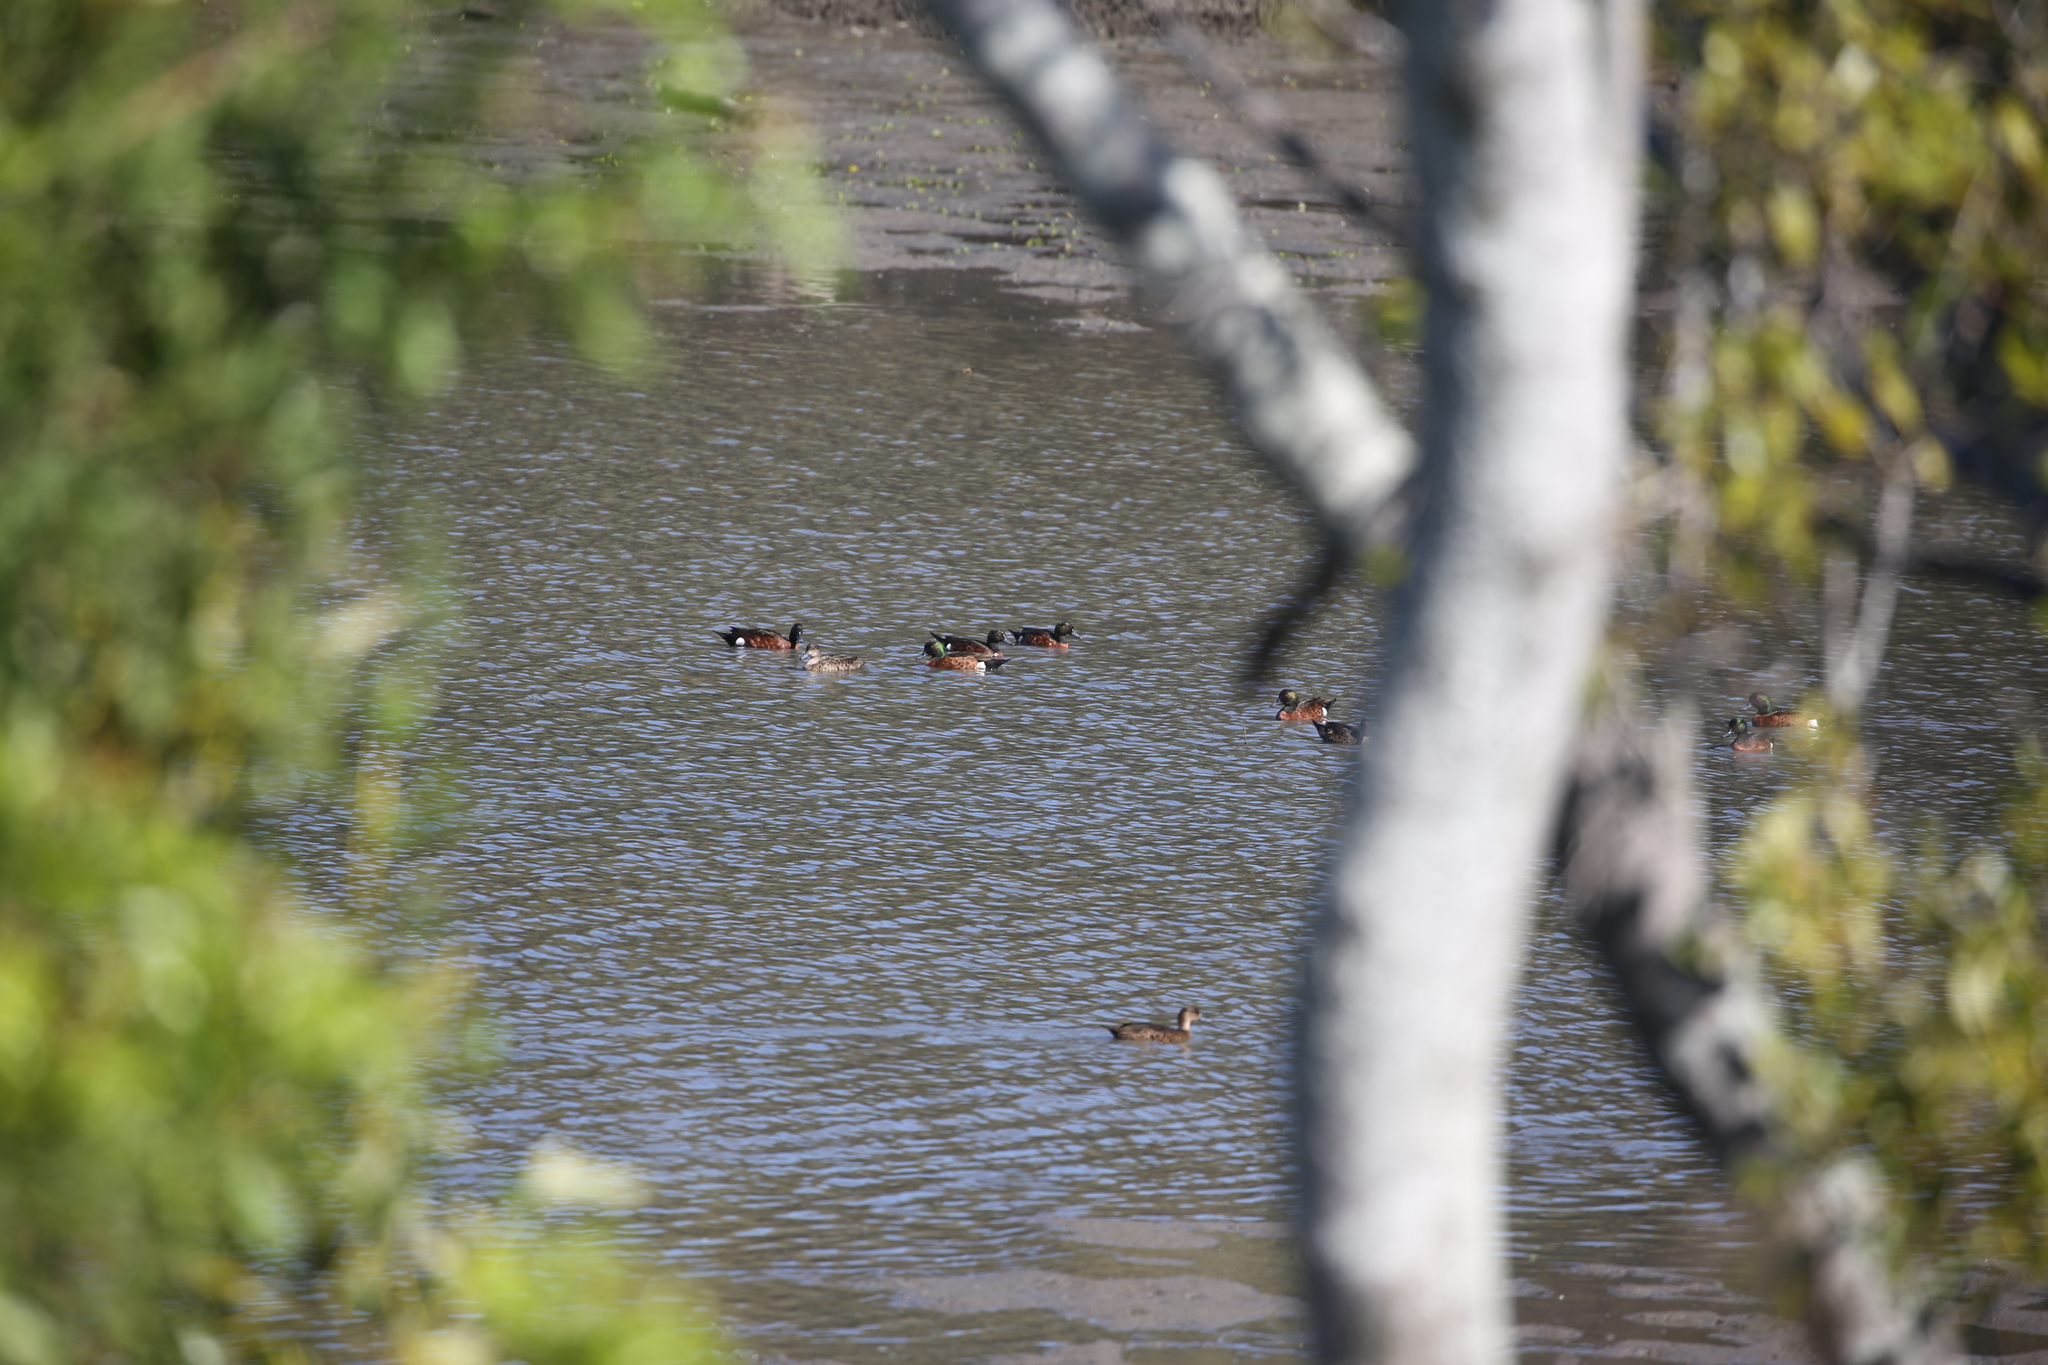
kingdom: Animalia
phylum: Chordata
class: Aves
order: Anseriformes
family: Anatidae
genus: Anas
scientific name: Anas castanea
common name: Chestnut teal
